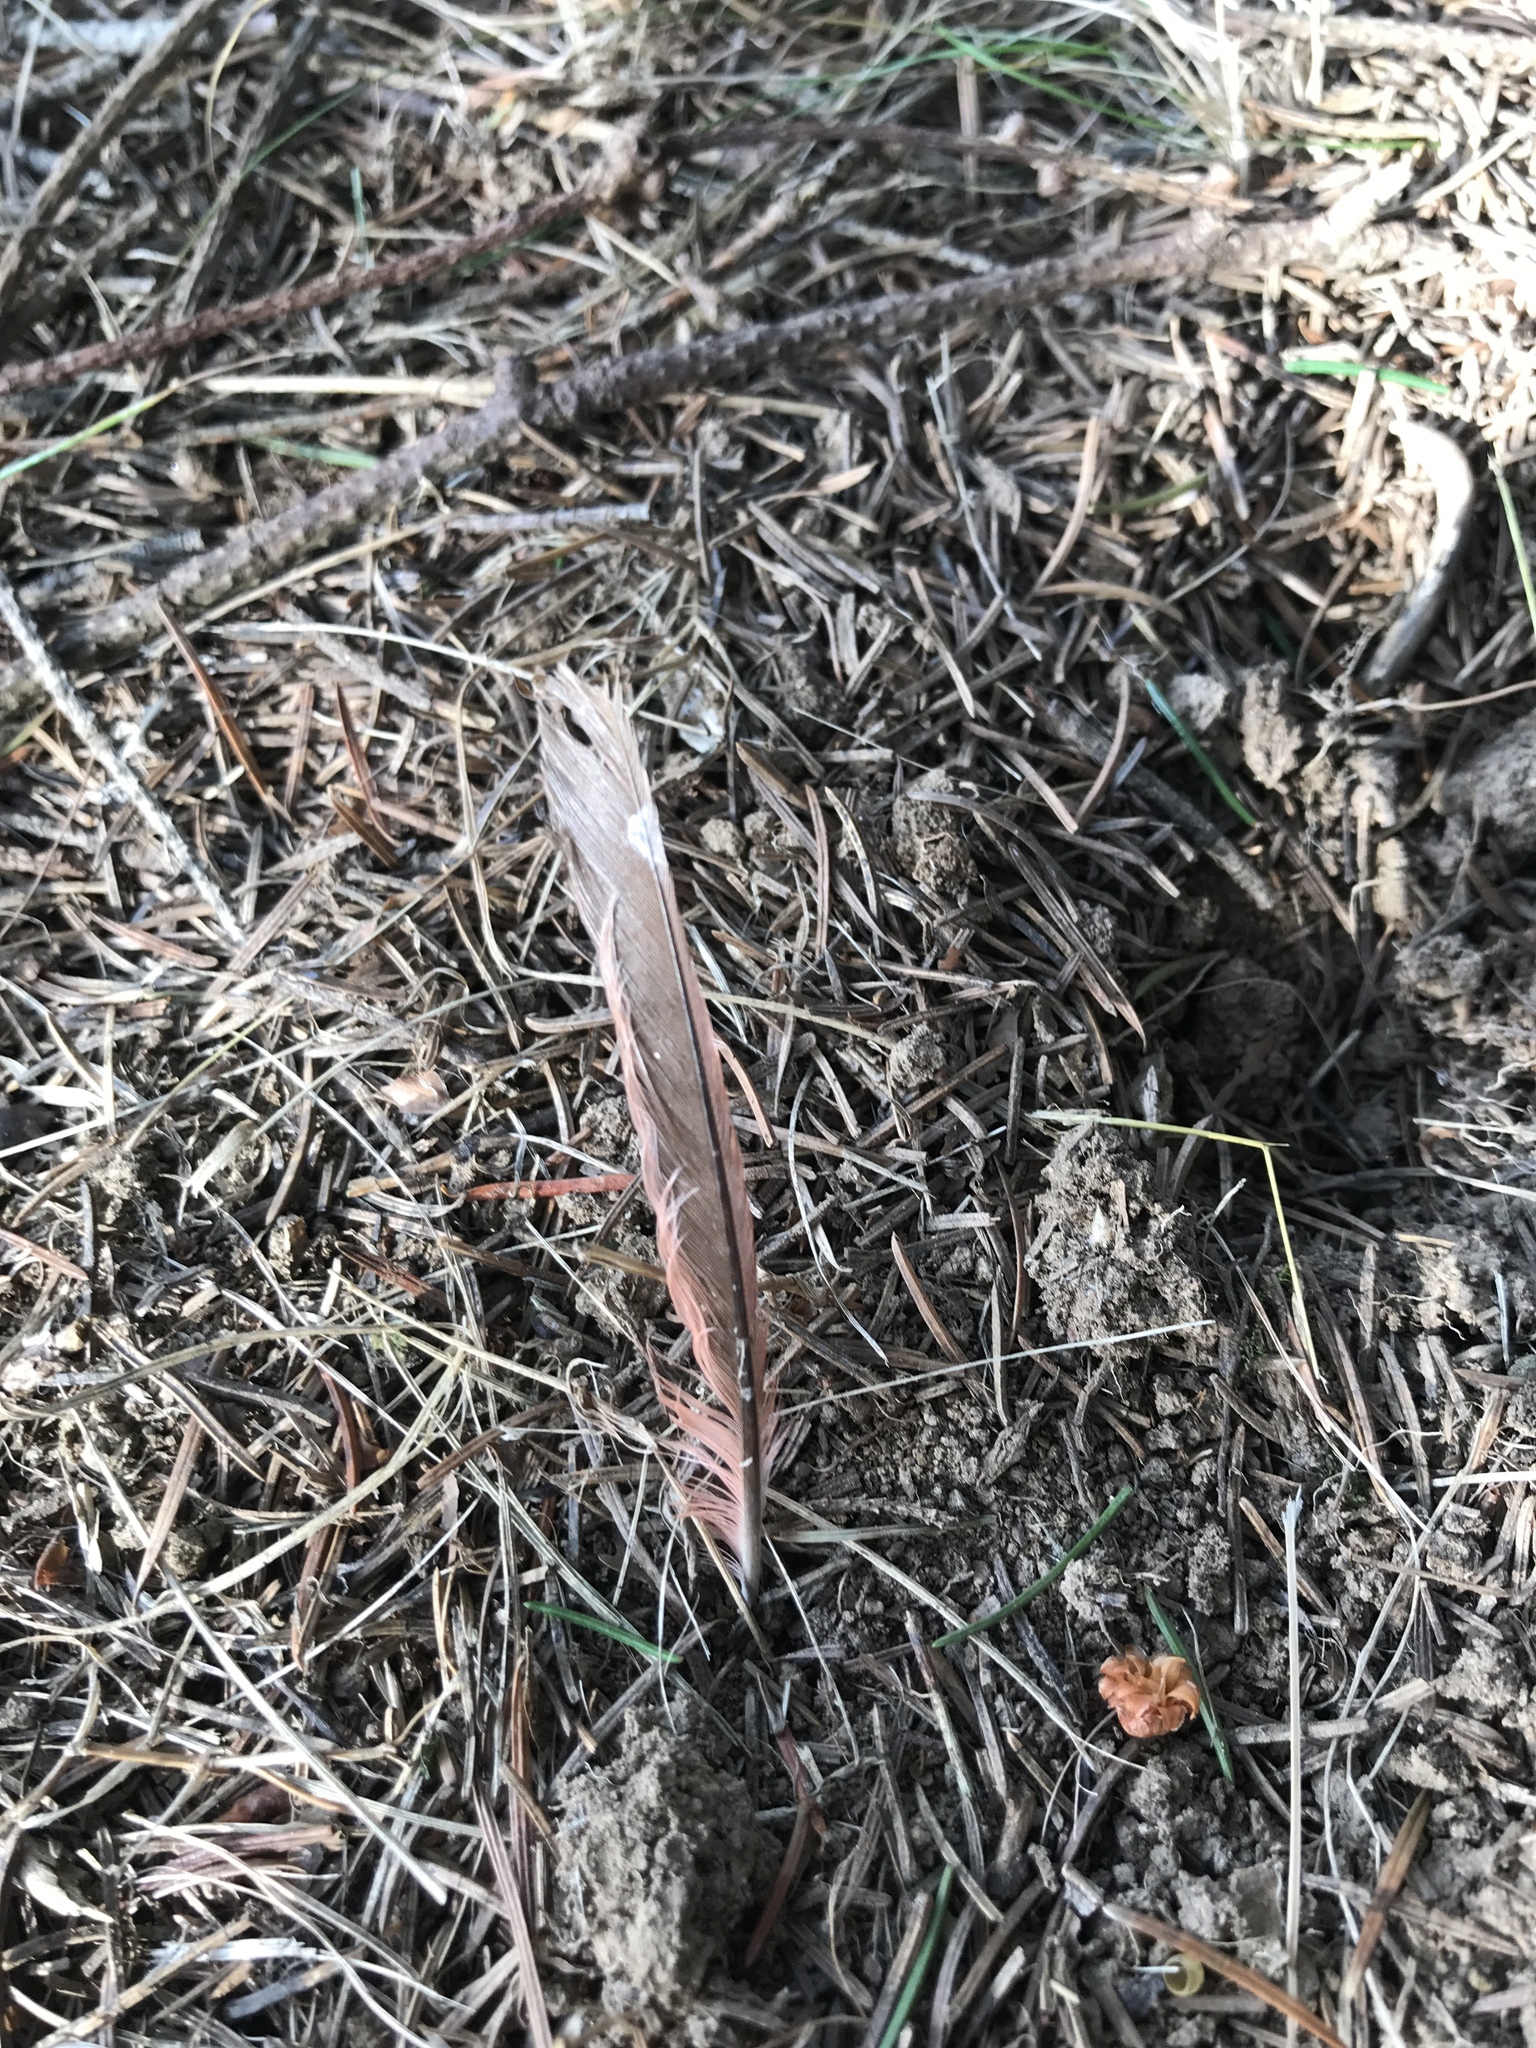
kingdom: Animalia
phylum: Chordata
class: Aves
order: Passeriformes
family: Cardinalidae
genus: Cardinalis
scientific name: Cardinalis cardinalis
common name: Northern cardinal
